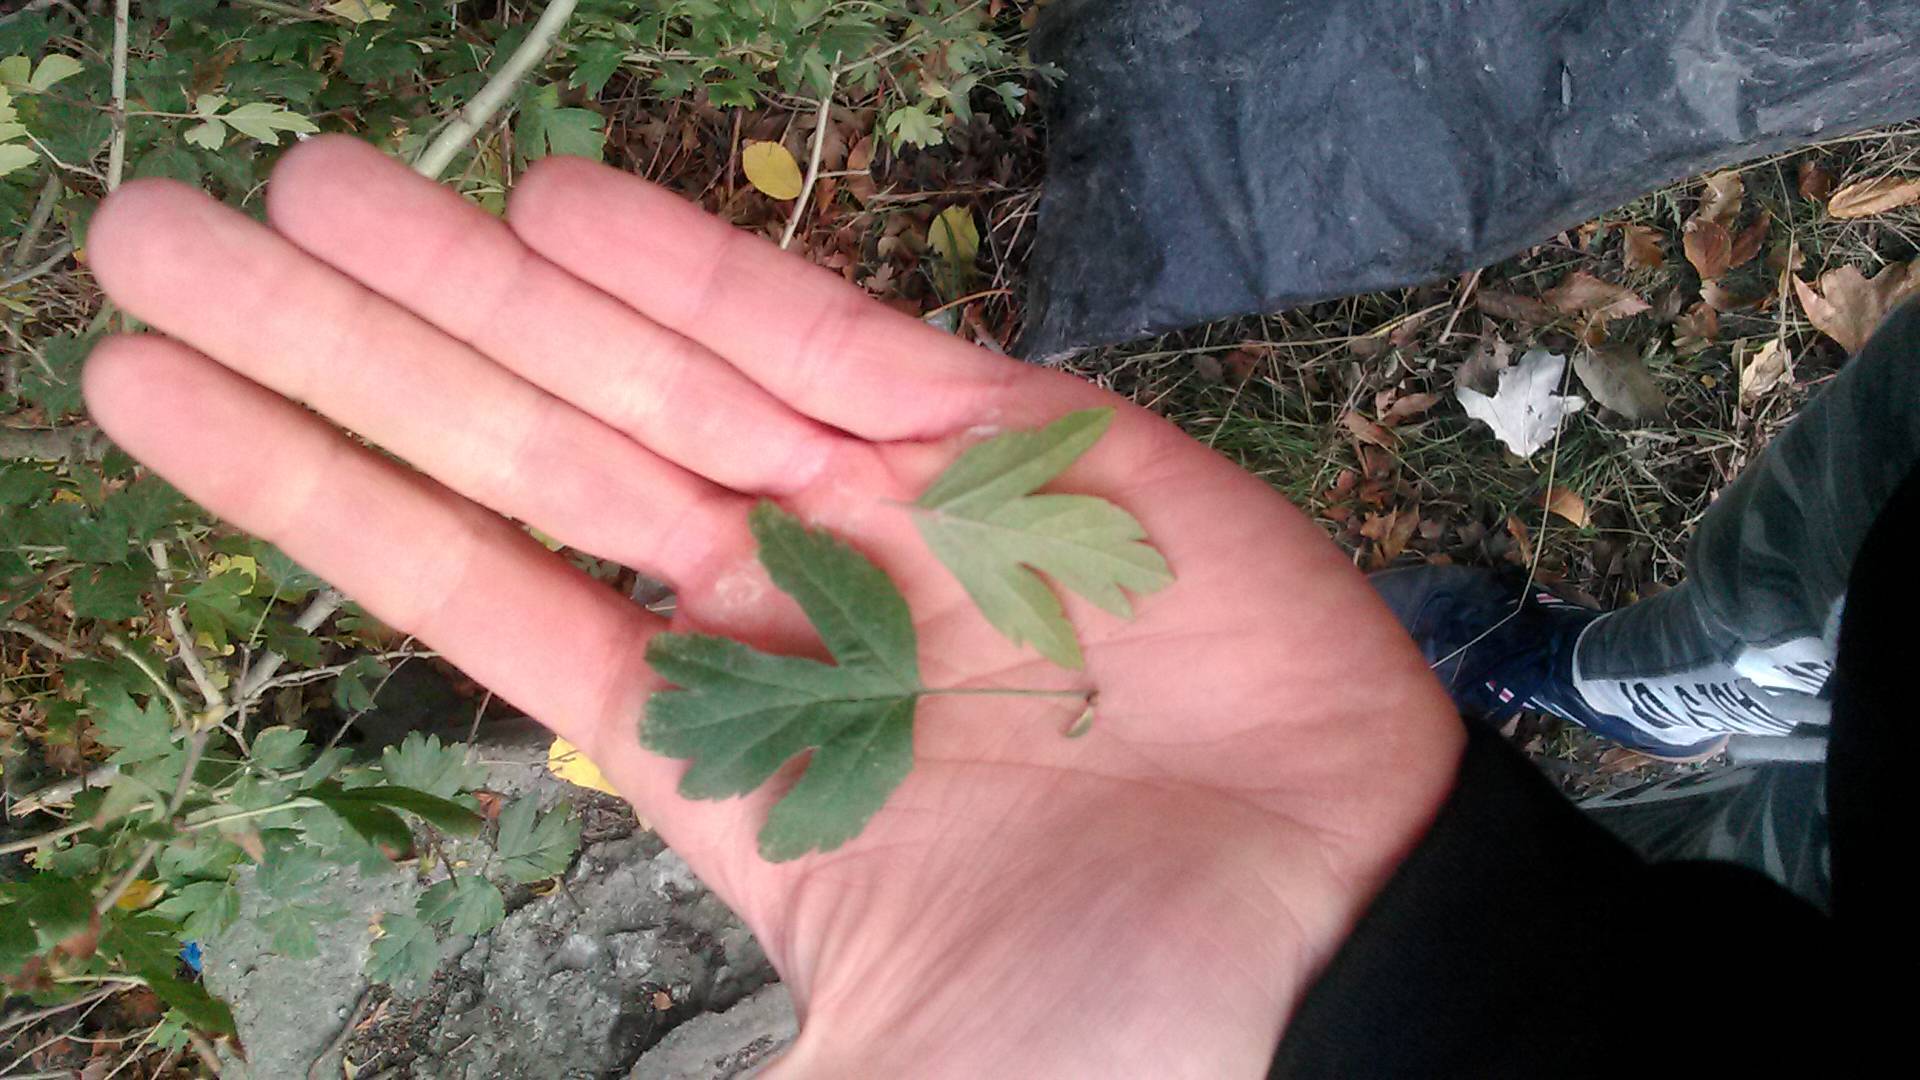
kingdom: Plantae
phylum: Tracheophyta
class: Magnoliopsida
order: Rosales
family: Rosaceae
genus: Crataegus
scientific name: Crataegus pentagyna
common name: Small-flowered black hawthorn
